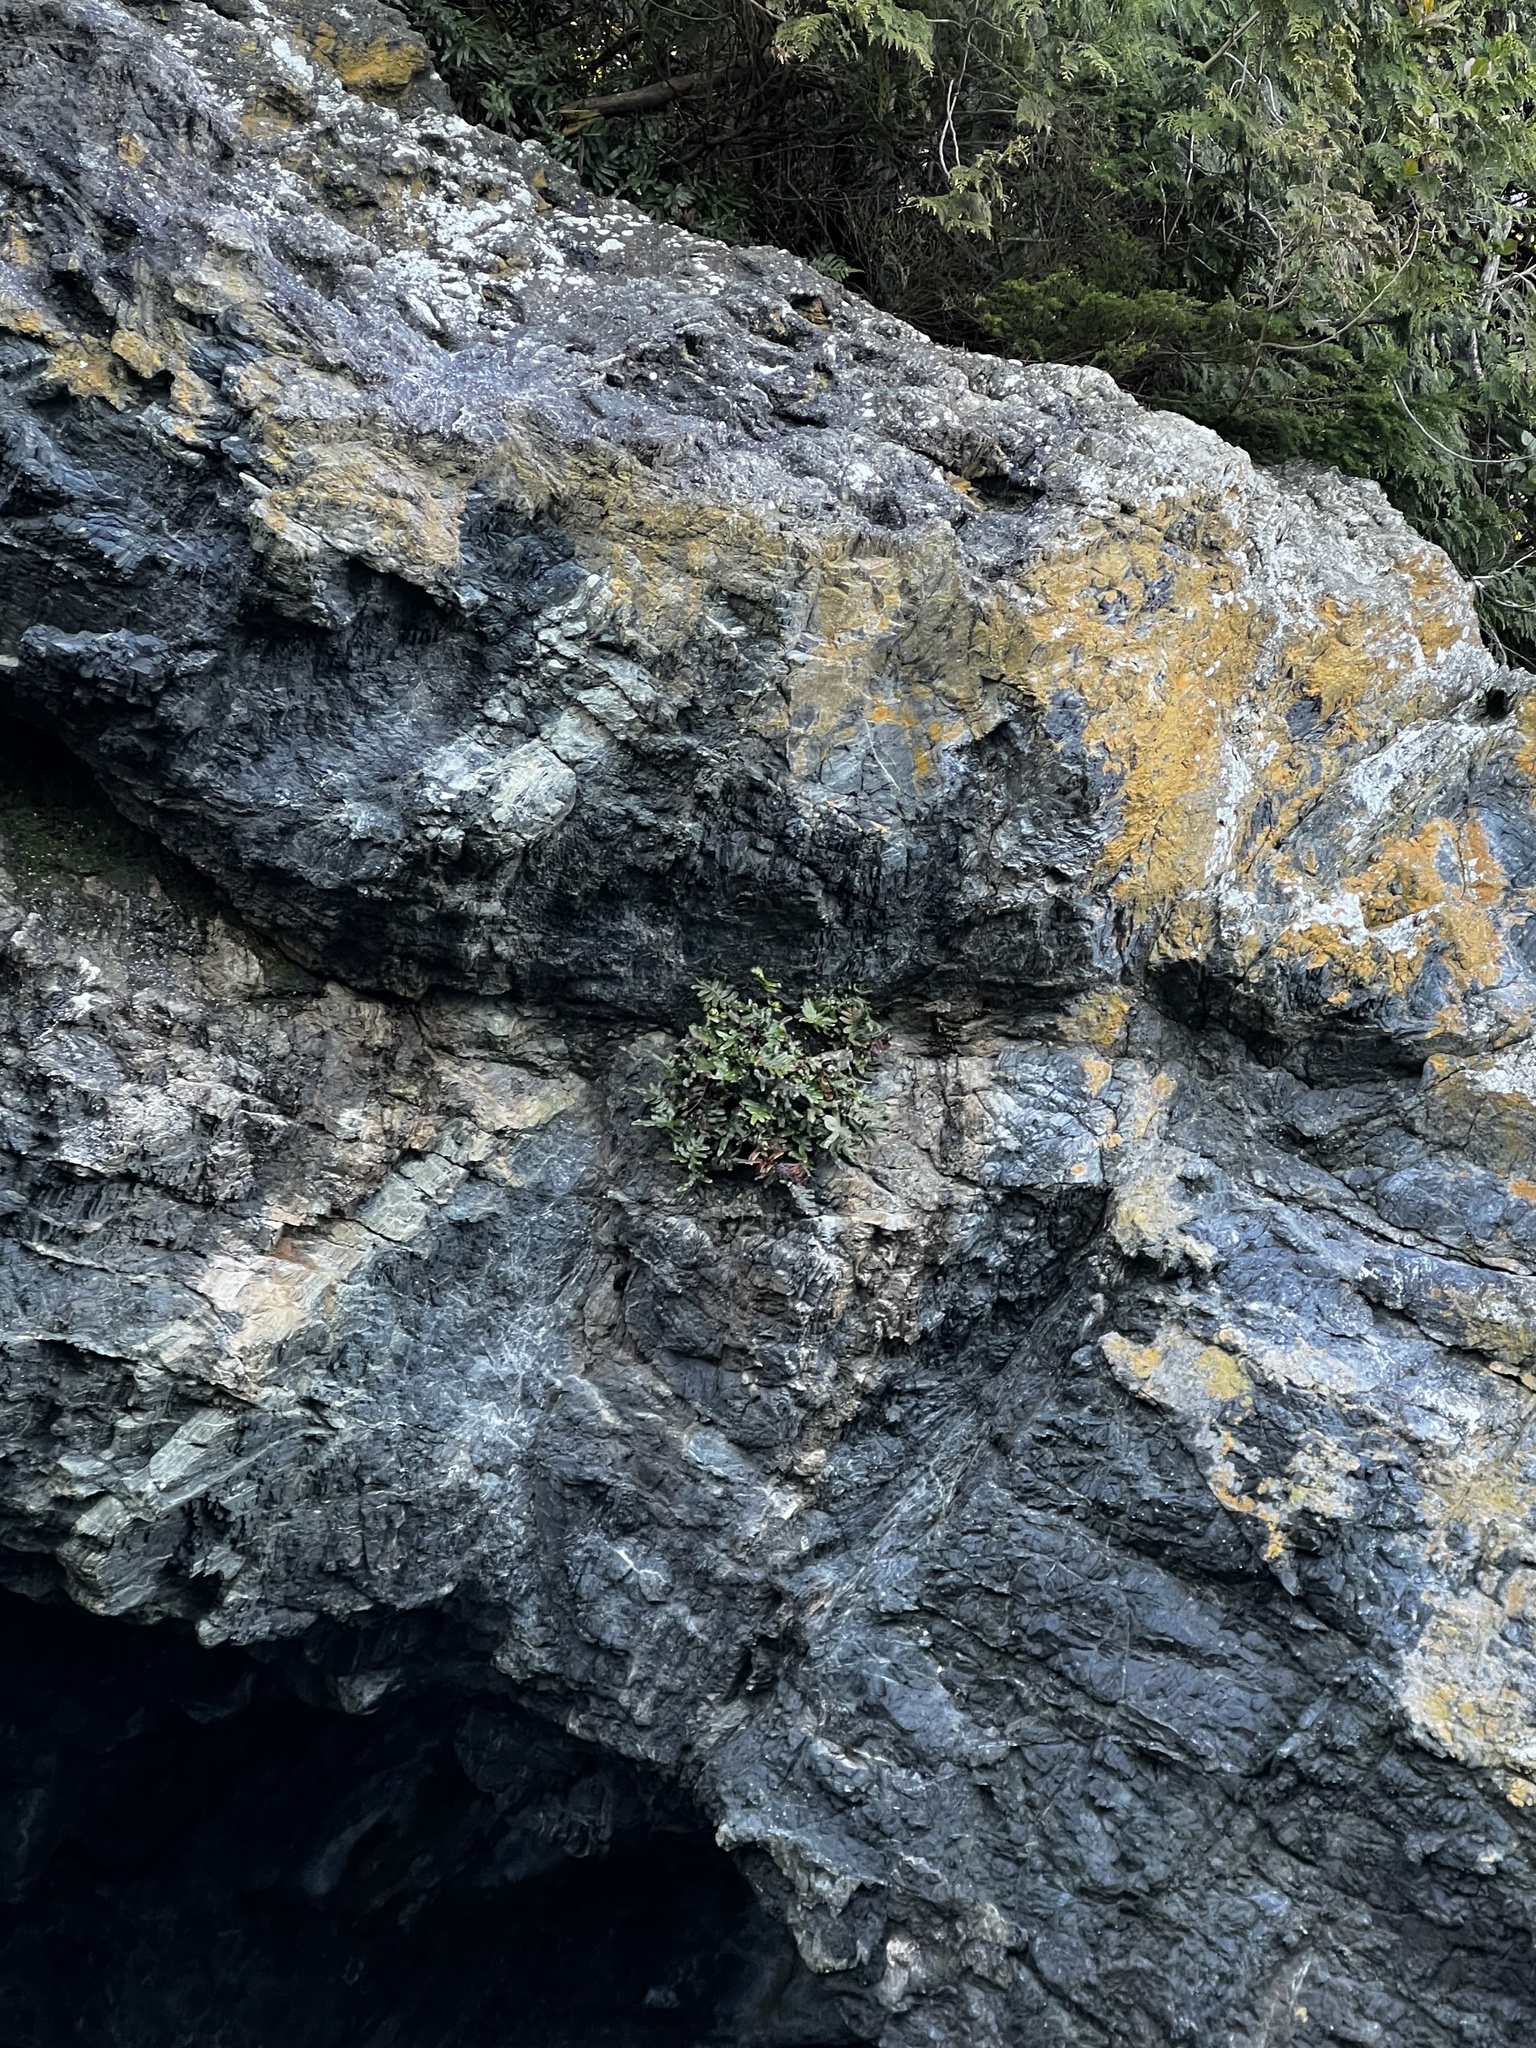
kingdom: Plantae
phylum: Tracheophyta
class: Polypodiopsida
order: Polypodiales
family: Polypodiaceae
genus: Polypodium
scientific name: Polypodium scouleri
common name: Scouler's polypody
